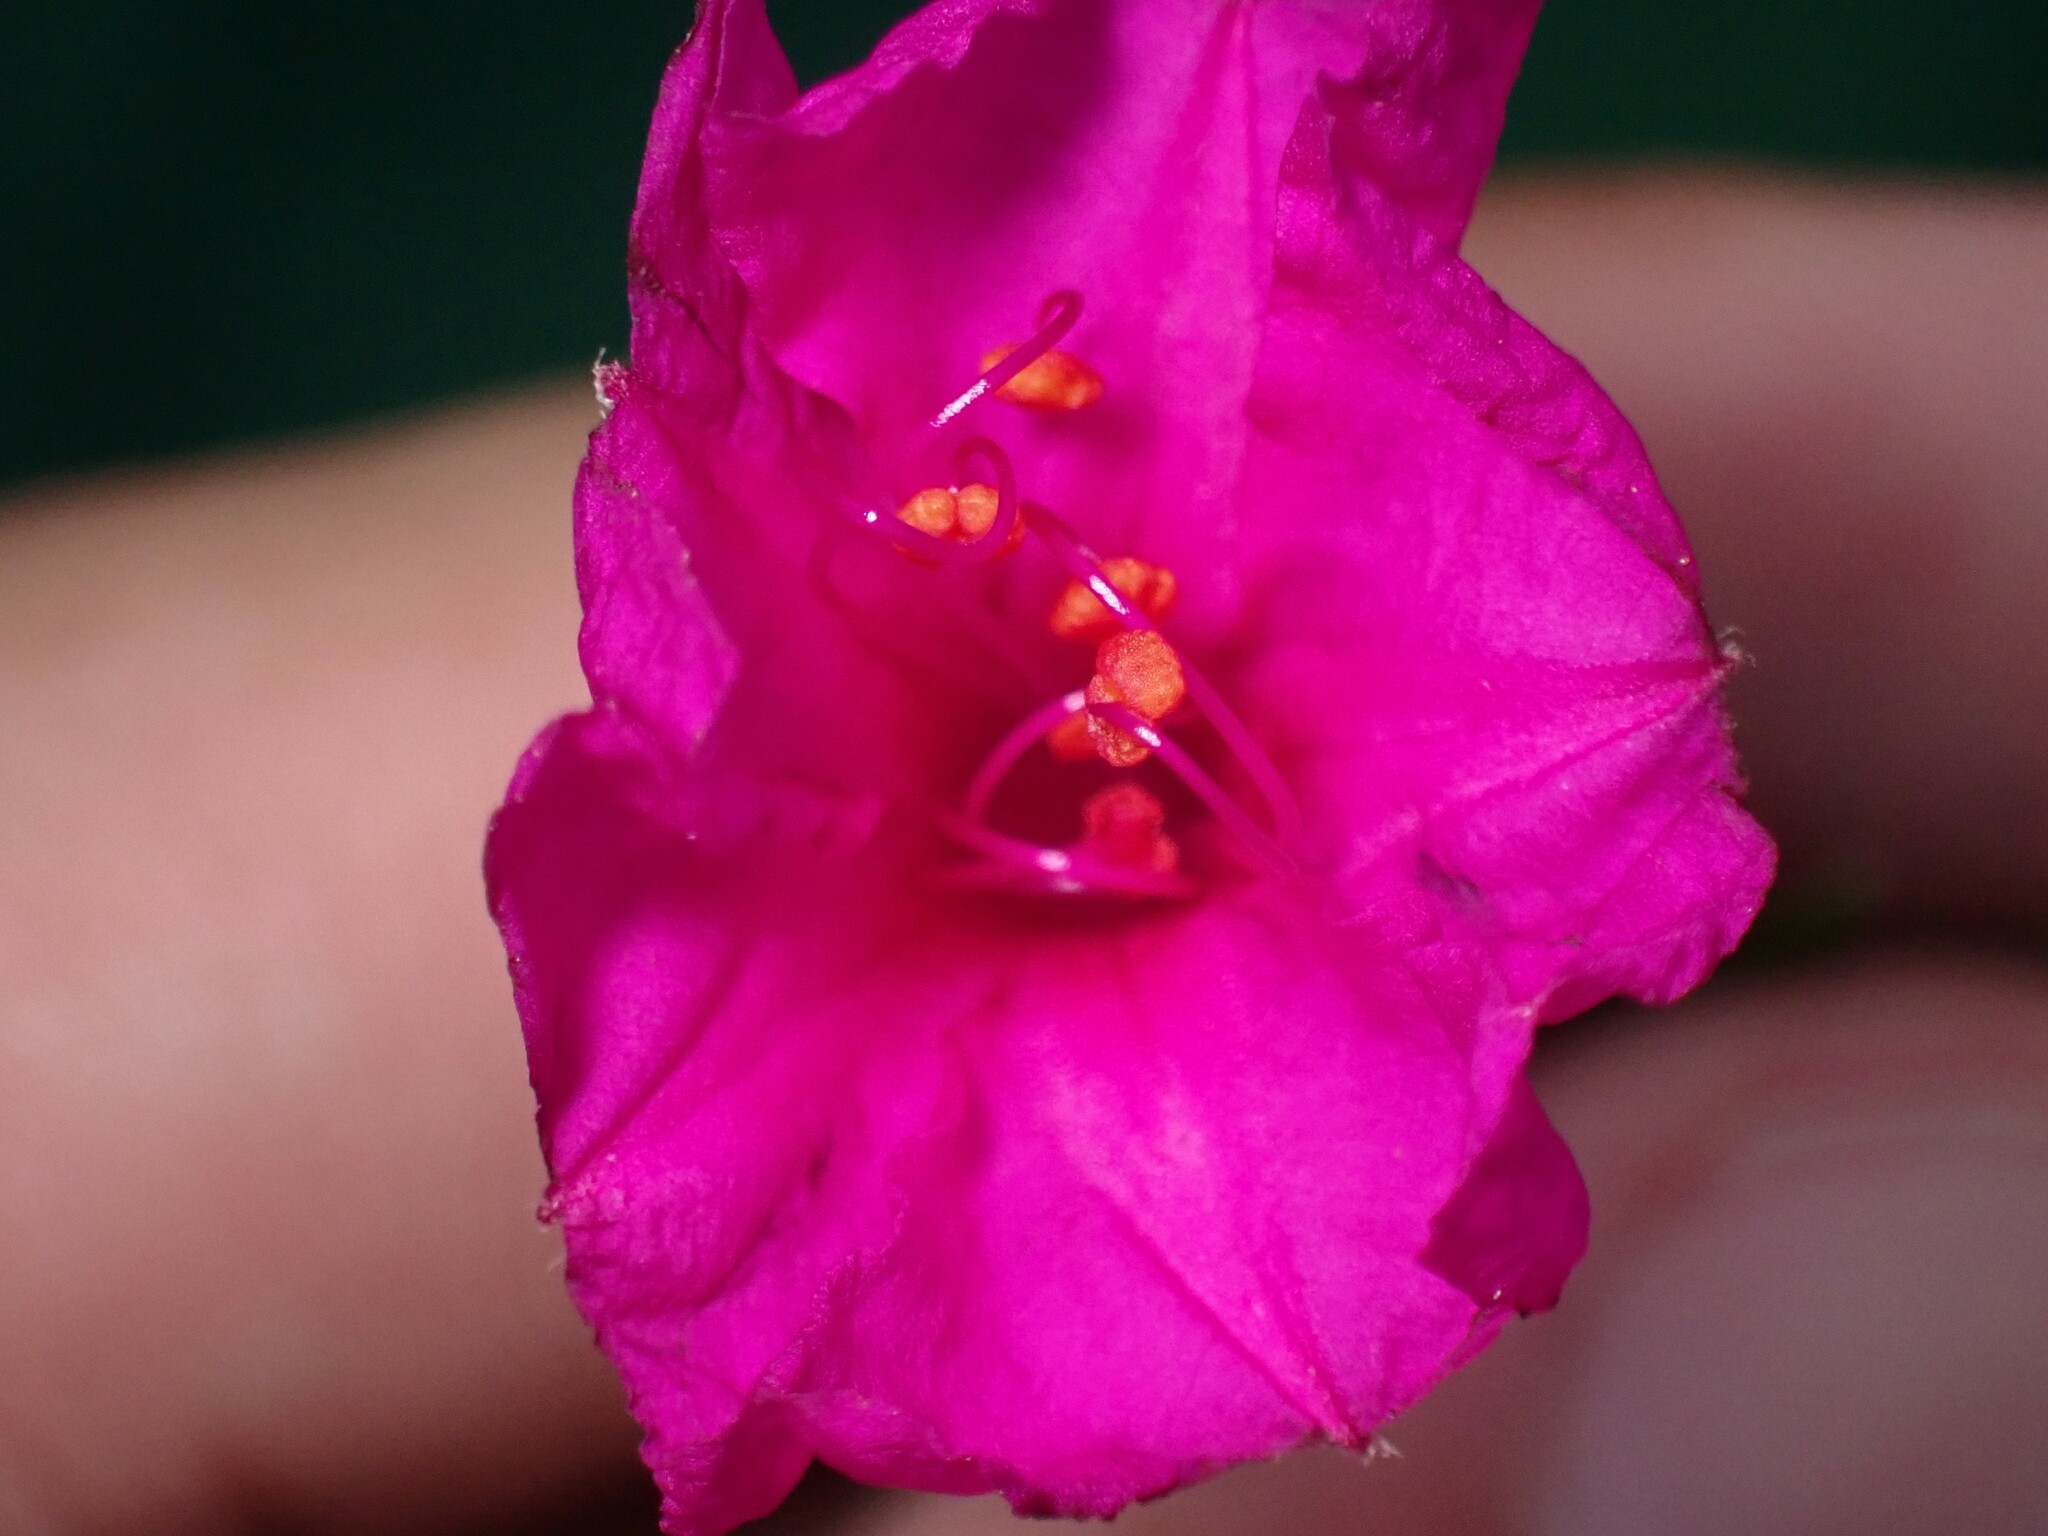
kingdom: Plantae
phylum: Tracheophyta
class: Magnoliopsida
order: Caryophyllales
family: Nyctaginaceae
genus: Mirabilis
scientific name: Mirabilis jalapa
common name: Marvel-of-peru
